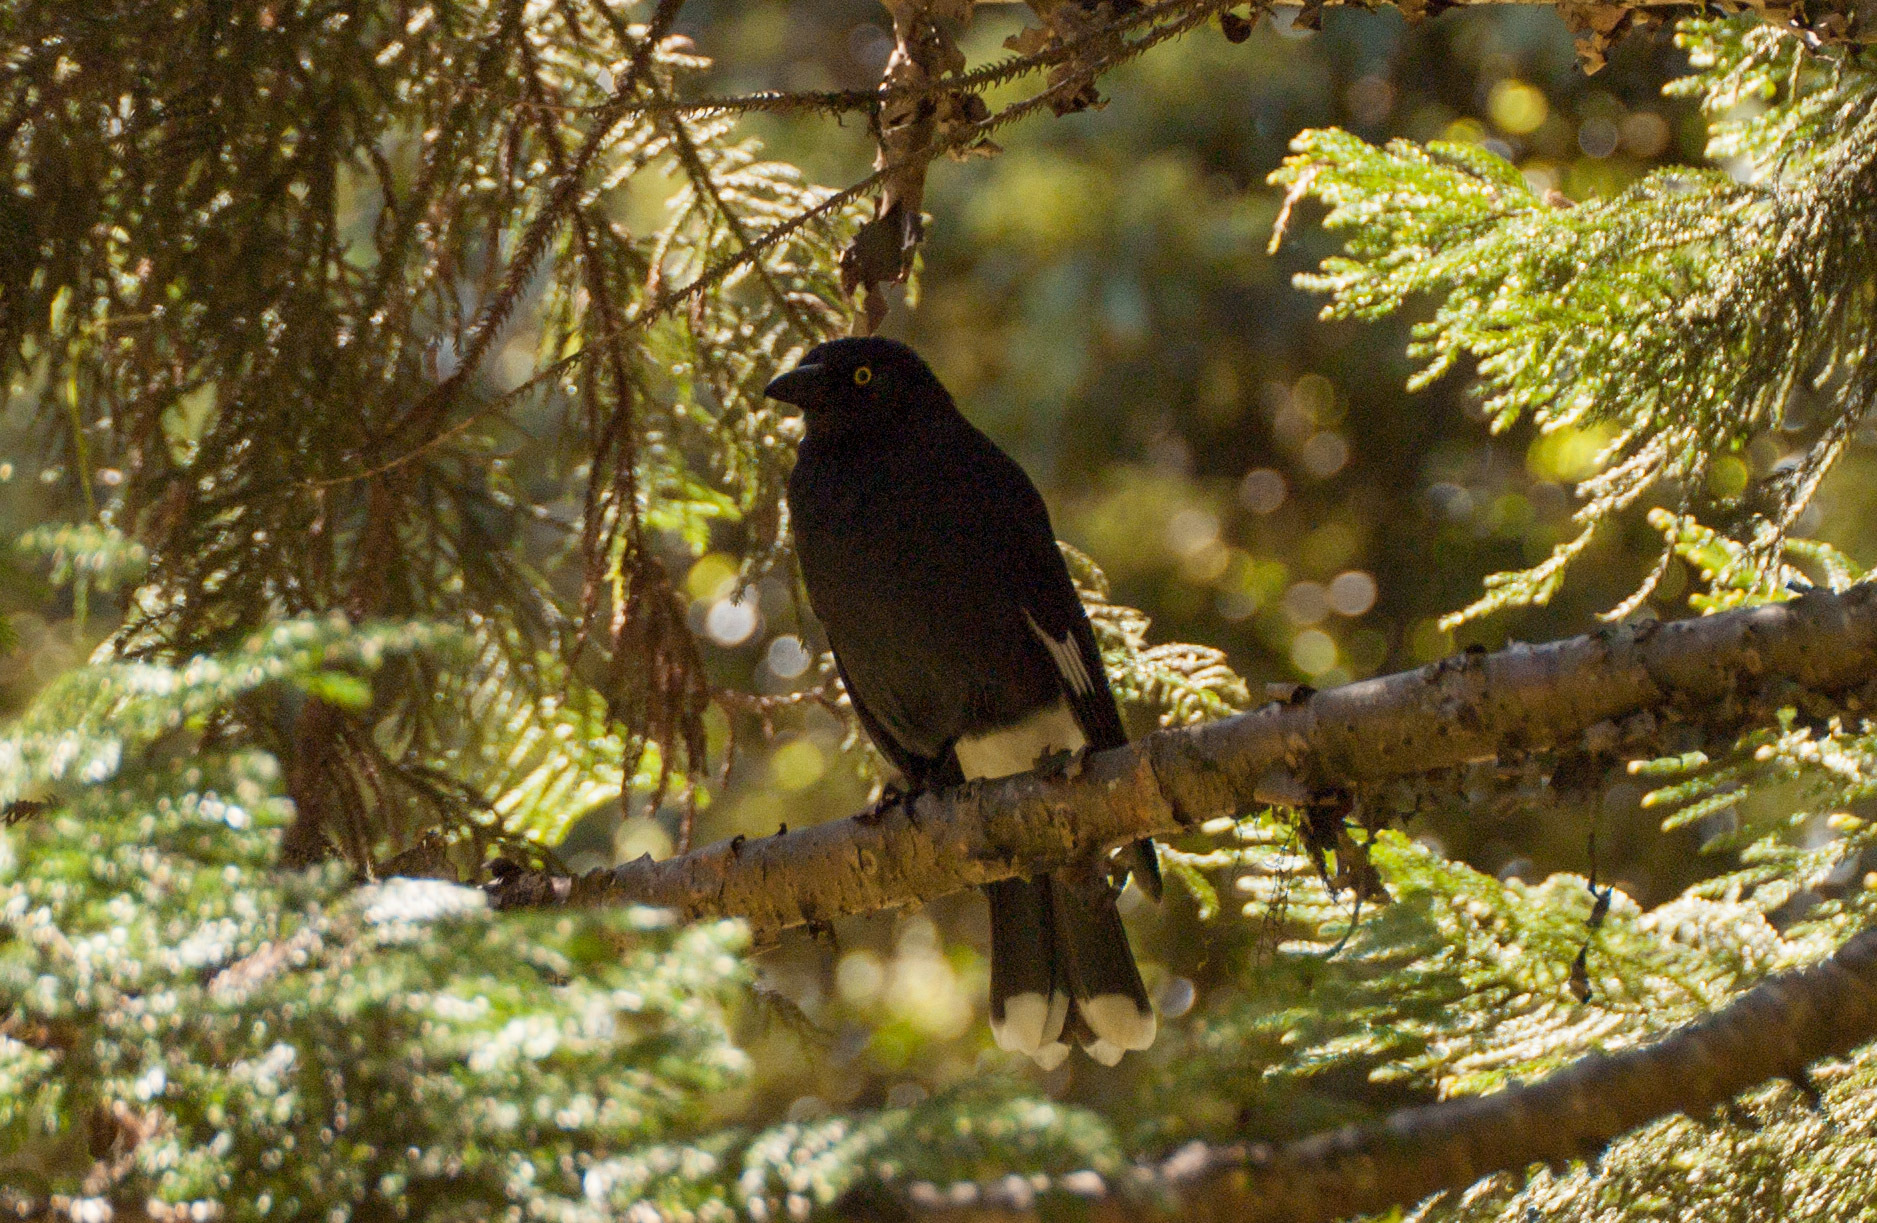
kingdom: Animalia
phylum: Chordata
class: Aves
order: Passeriformes
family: Cracticidae
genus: Strepera
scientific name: Strepera graculina
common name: Pied currawong
